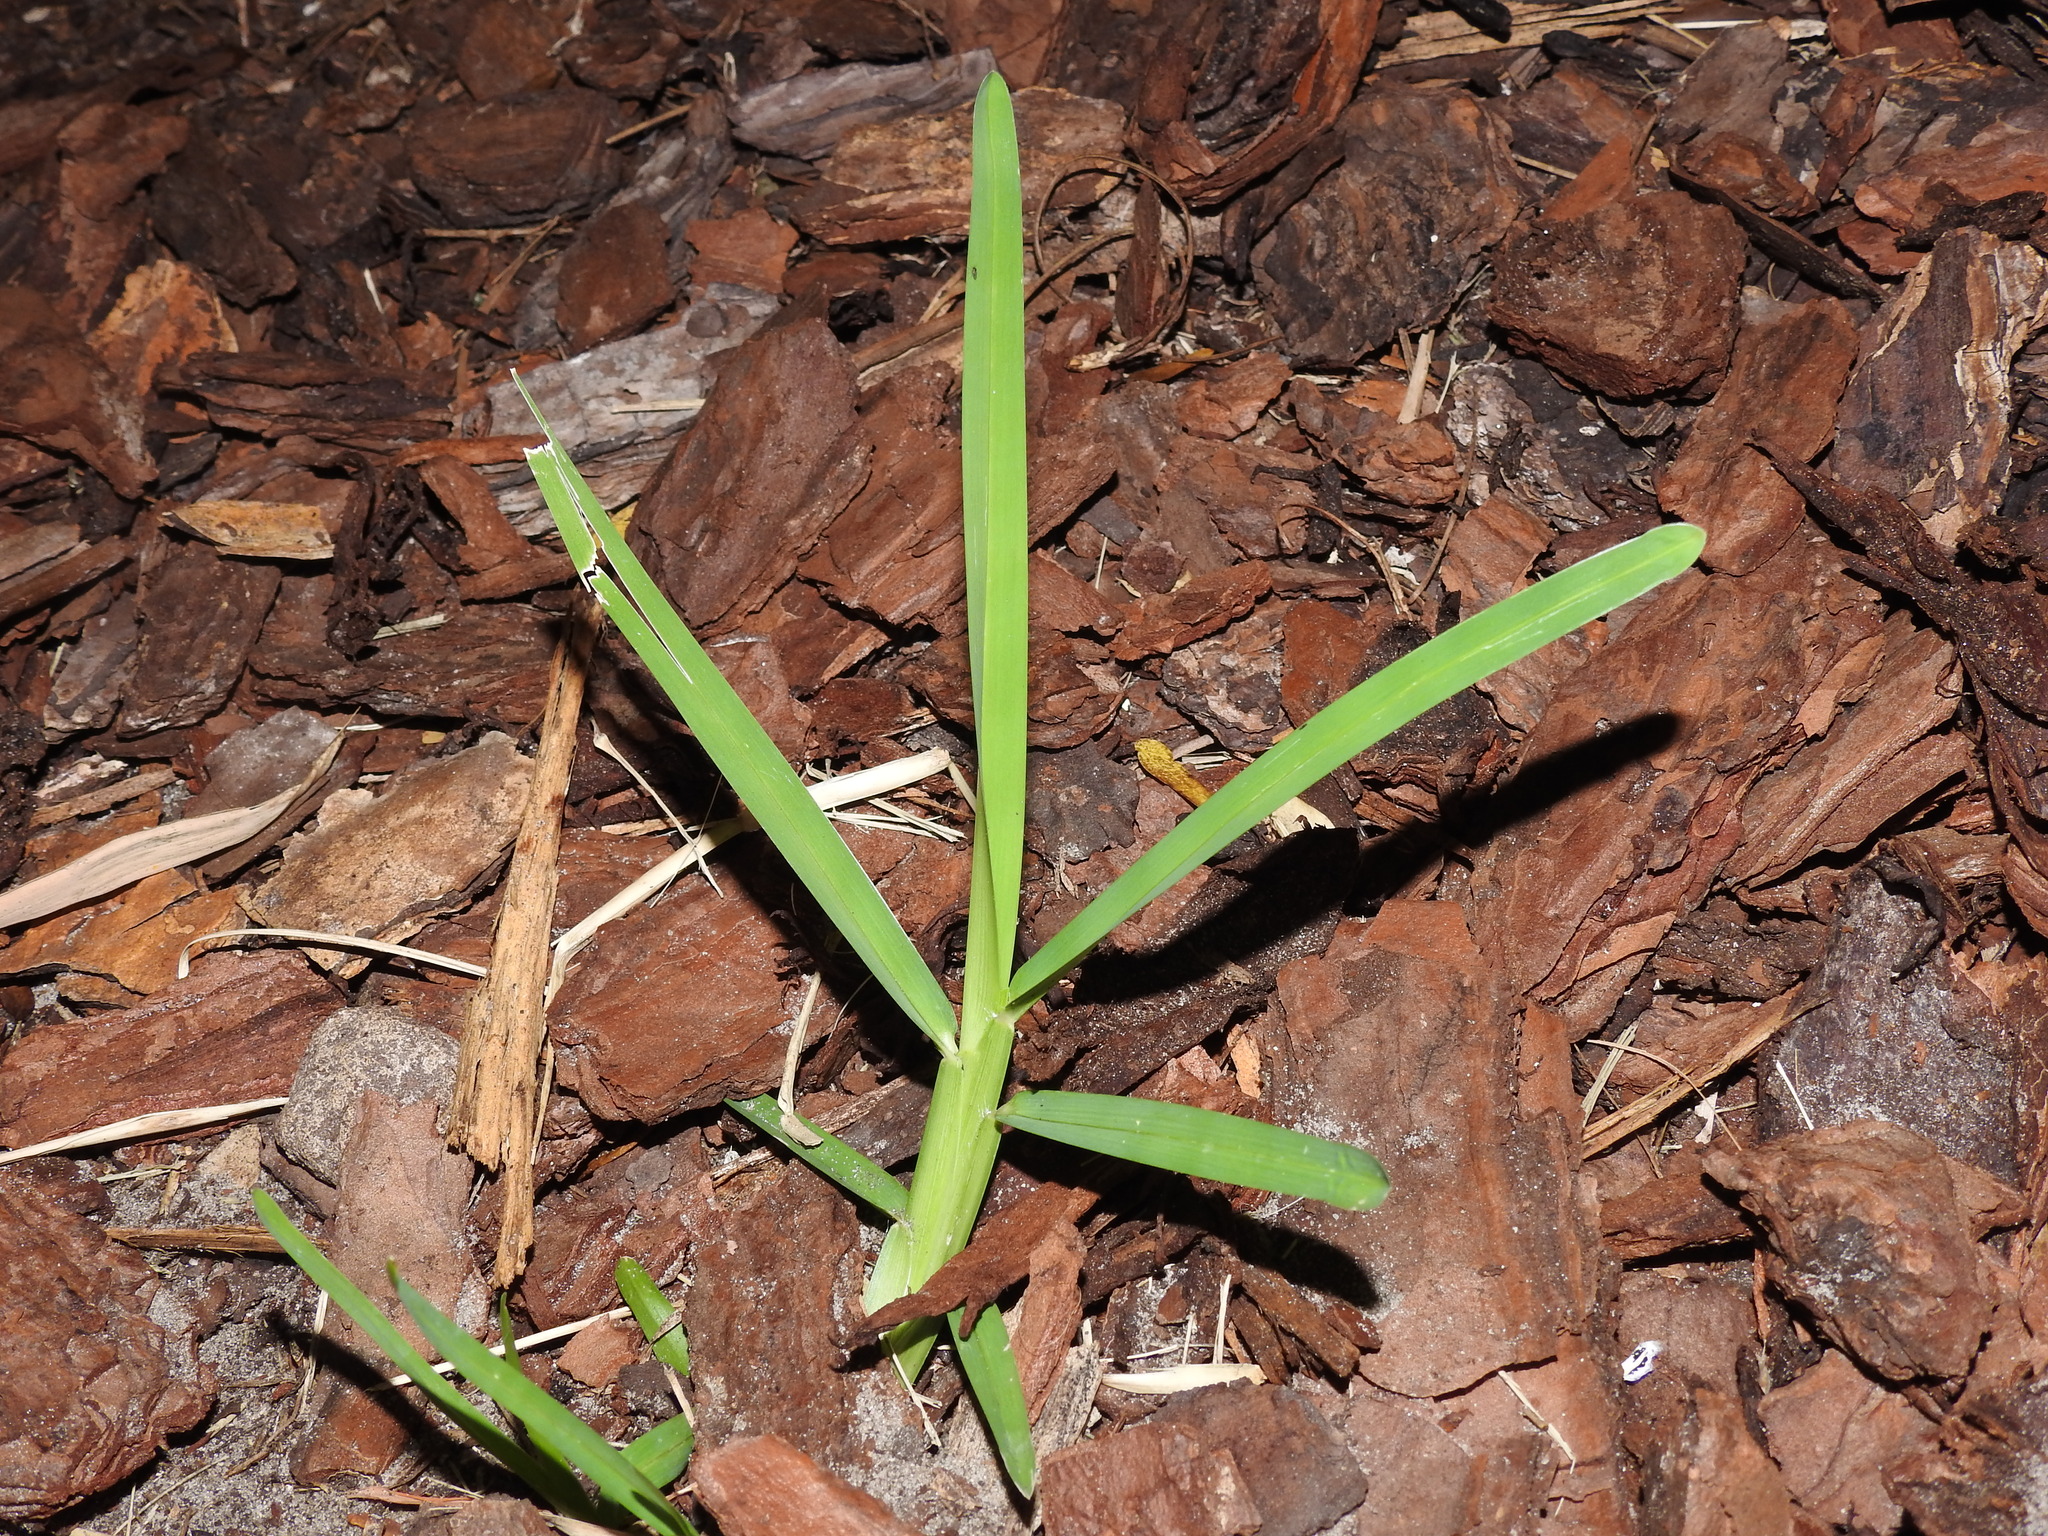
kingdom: Plantae
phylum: Tracheophyta
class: Liliopsida
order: Poales
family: Poaceae
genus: Stenotaphrum
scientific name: Stenotaphrum secundatum
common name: St. augustine grass
